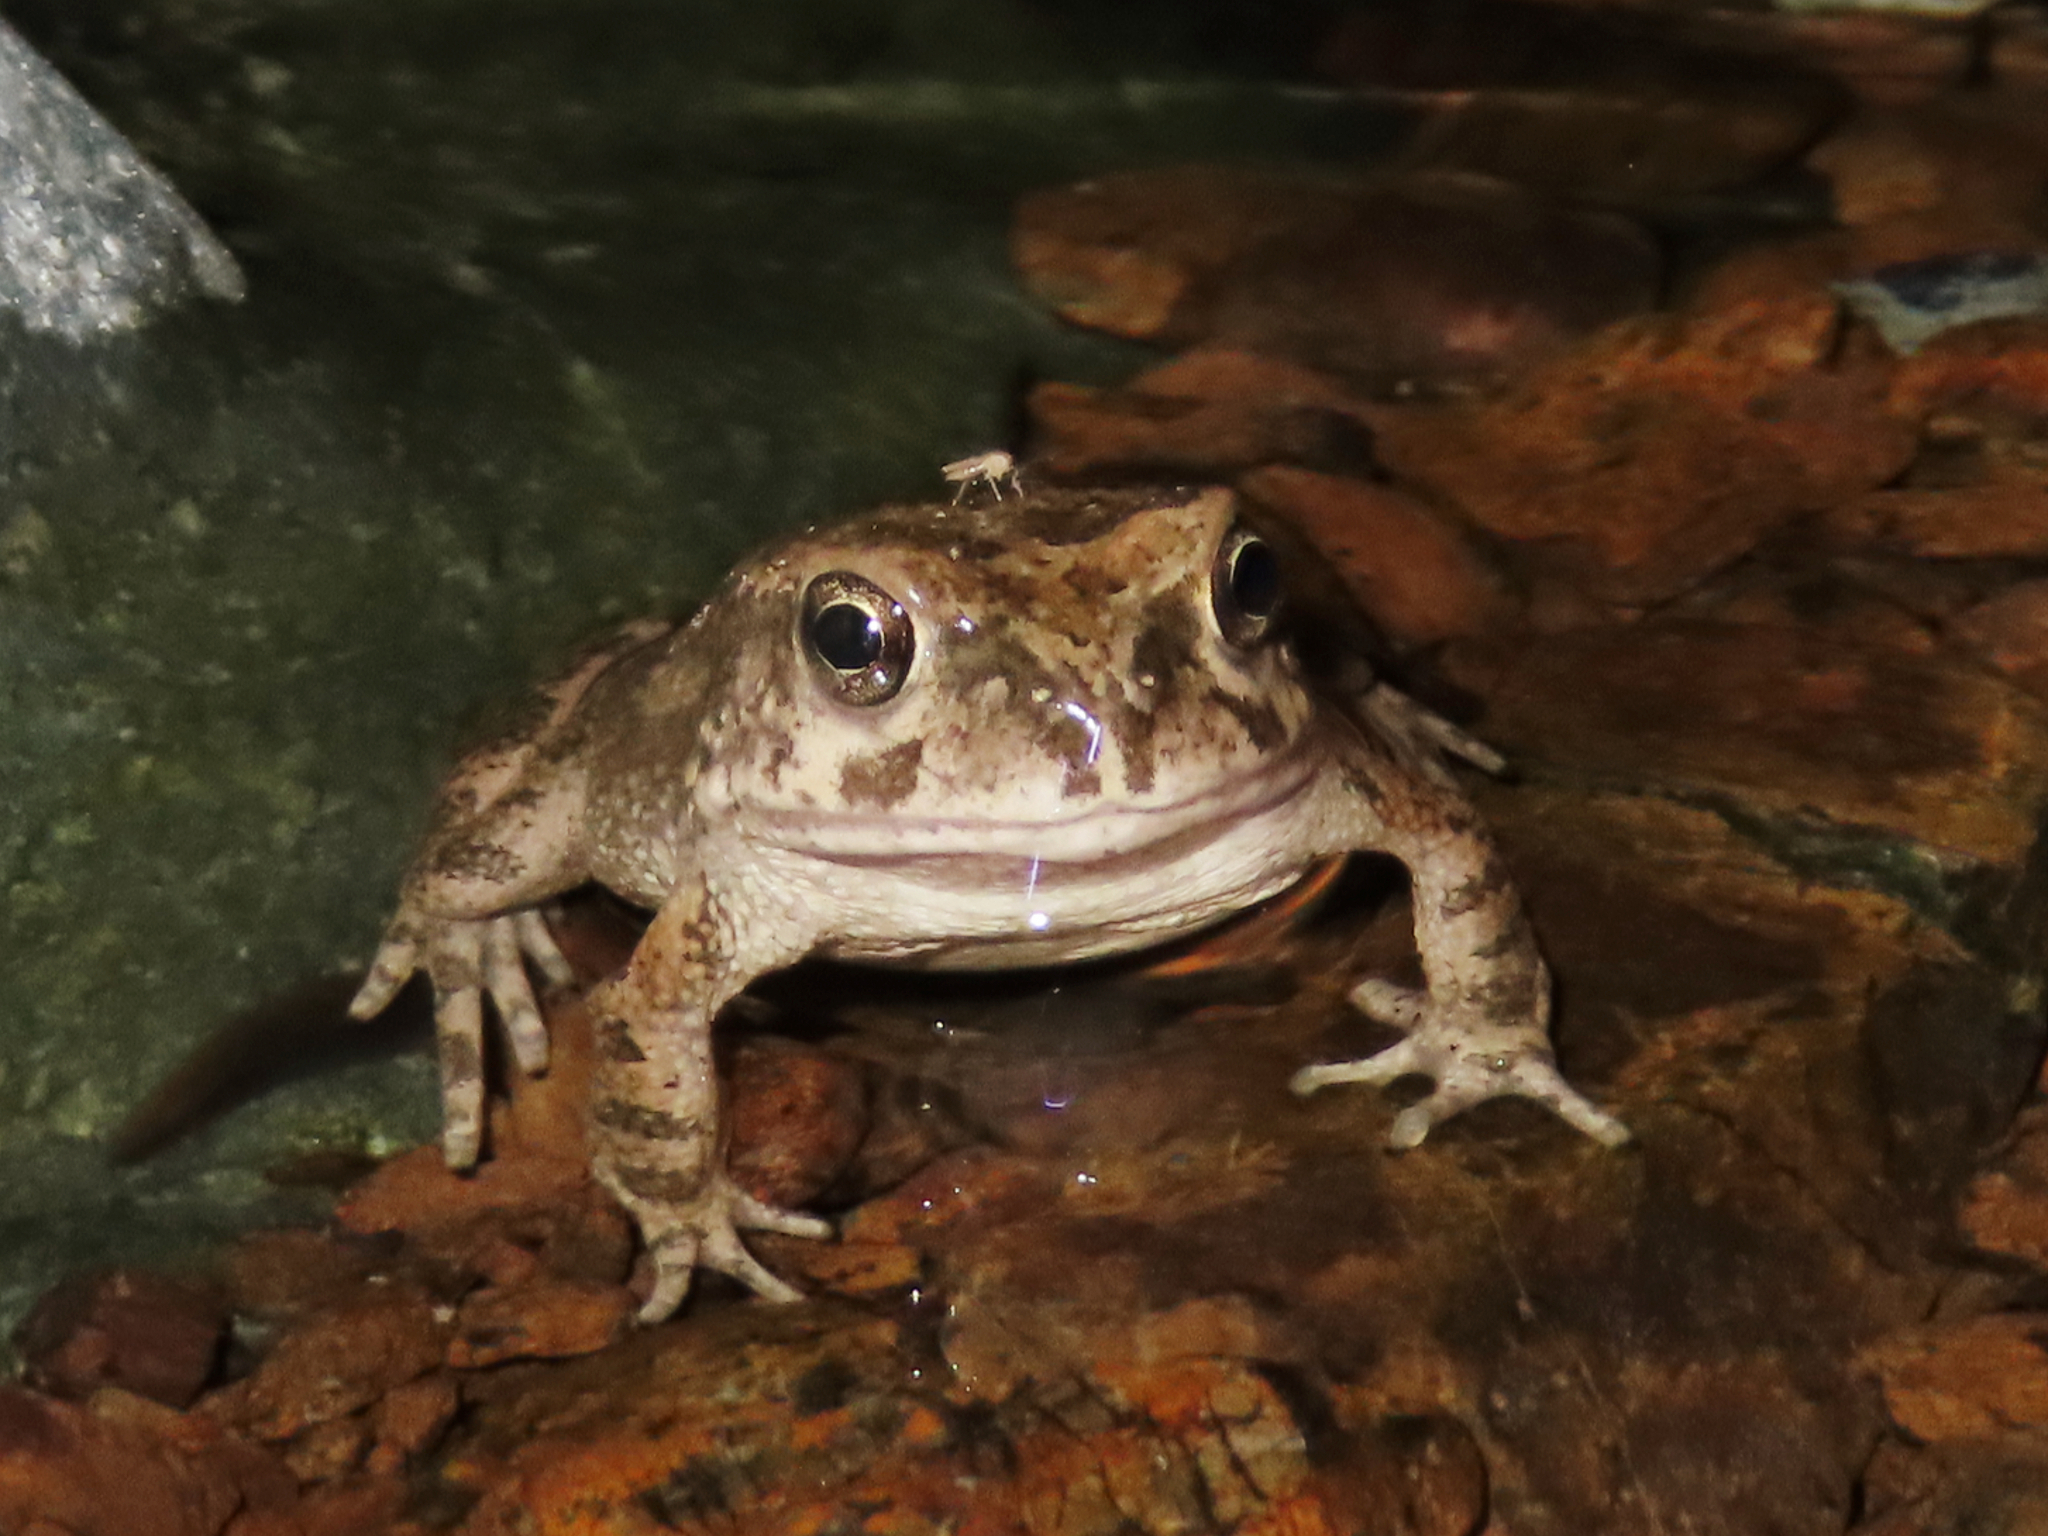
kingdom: Animalia
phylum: Chordata
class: Amphibia
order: Anura
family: Bufonidae
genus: Sclerophrys
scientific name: Sclerophrys arabica
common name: Arabian toad
